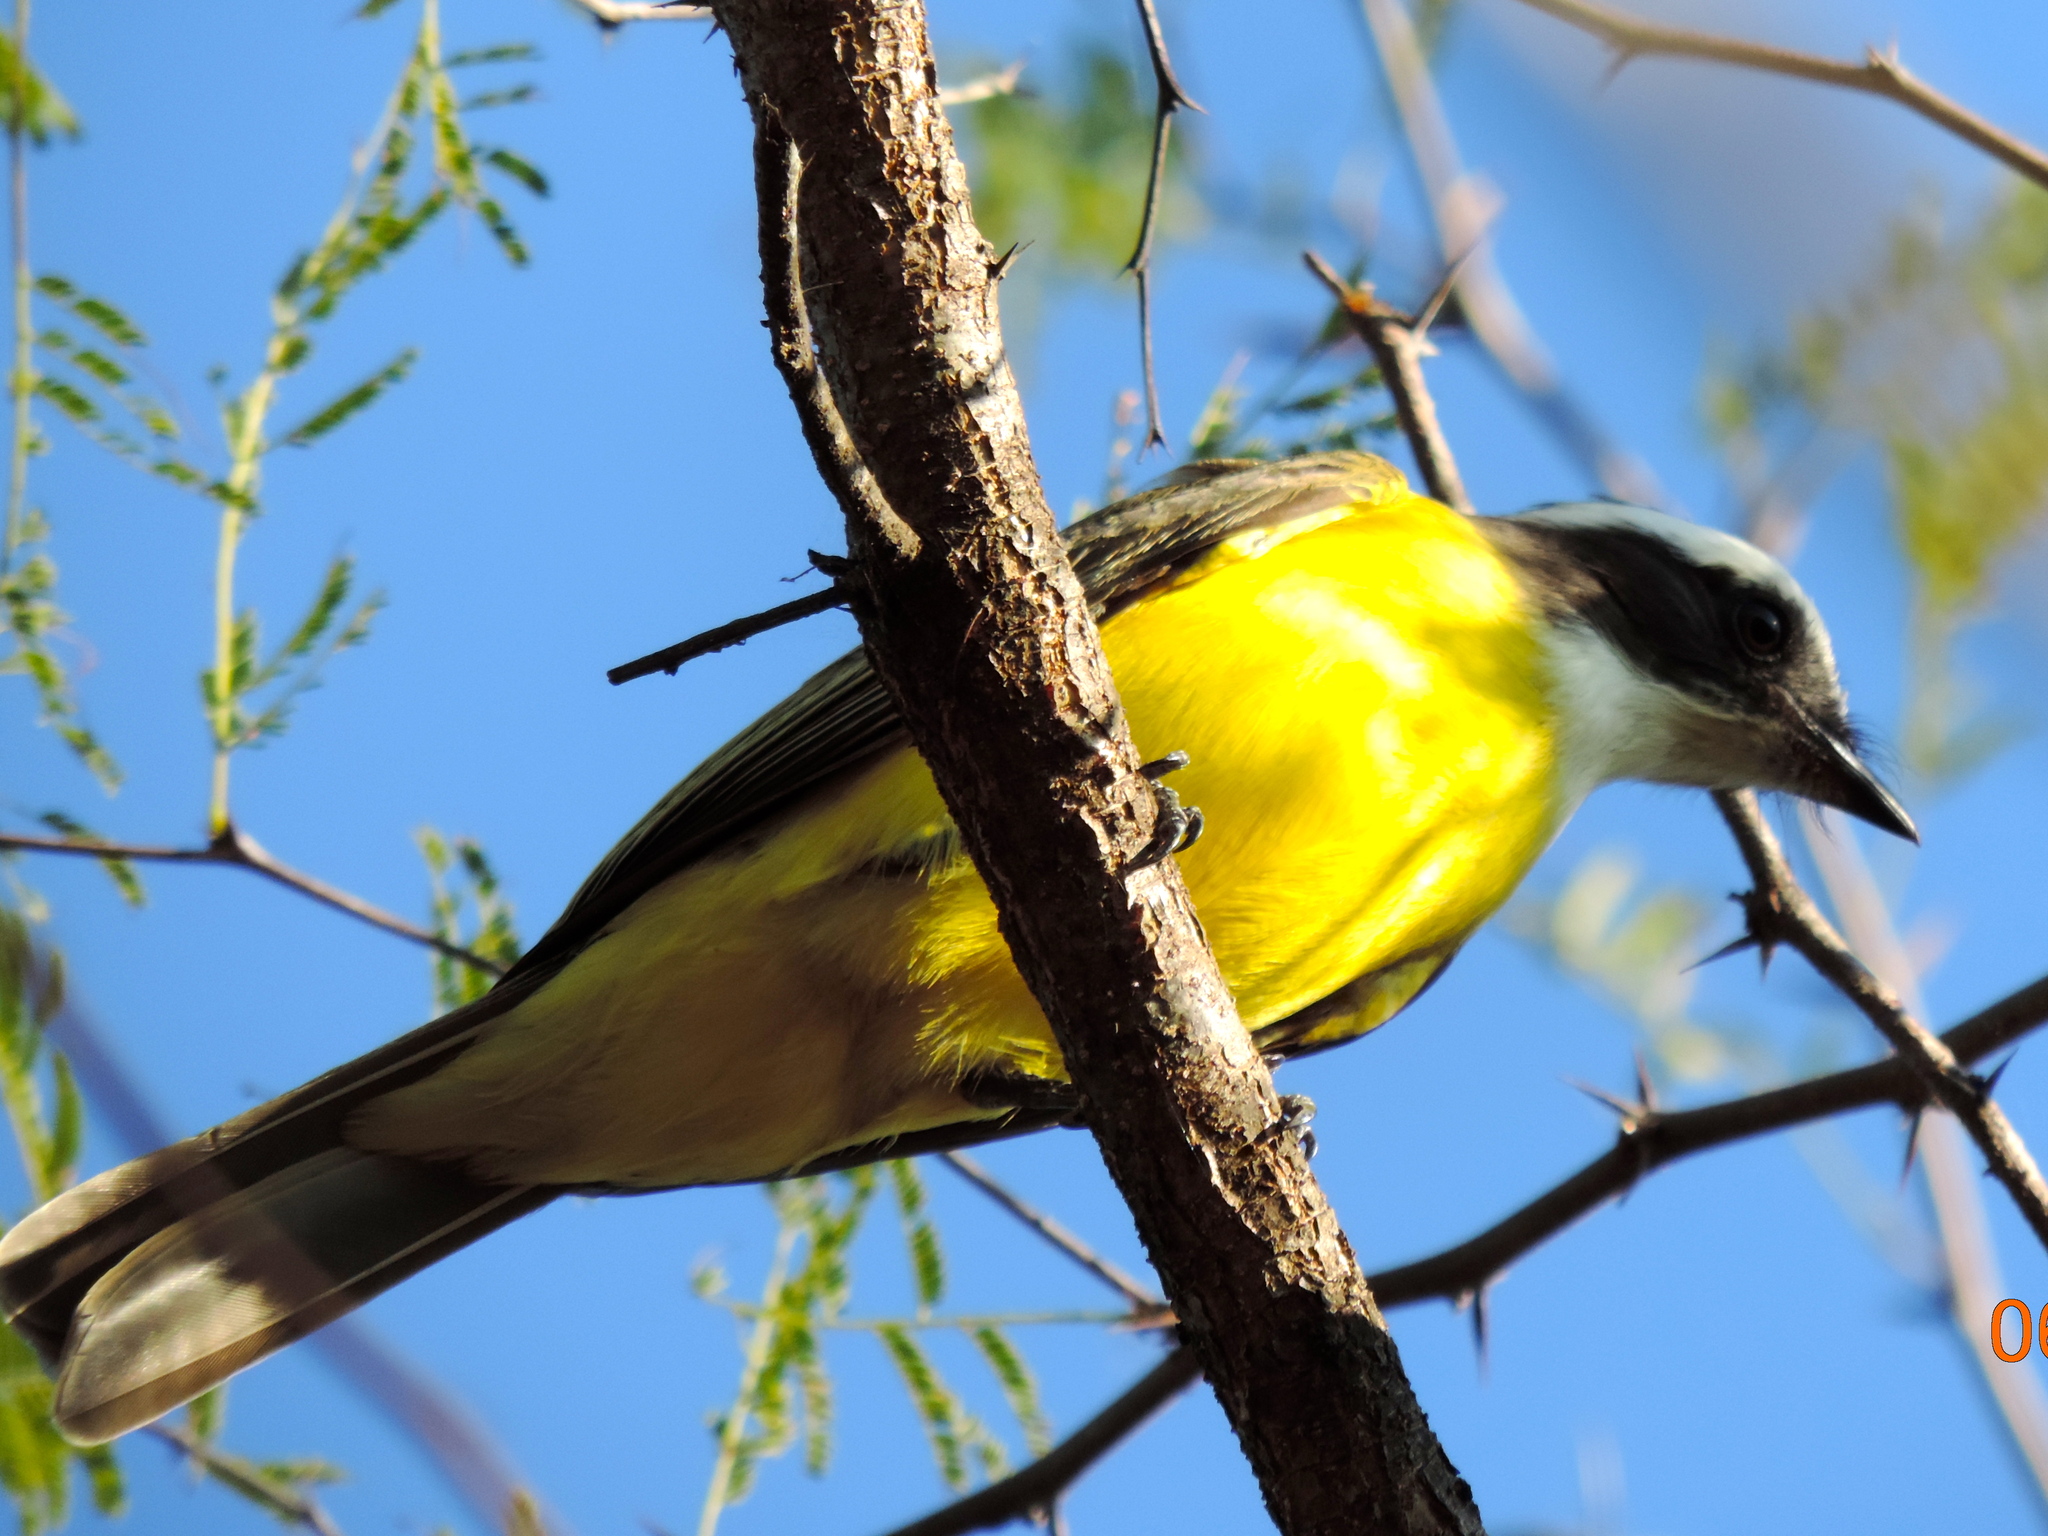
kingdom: Animalia
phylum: Chordata
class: Aves
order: Passeriformes
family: Tyrannidae
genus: Myiozetetes
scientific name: Myiozetetes similis
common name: Social flycatcher
